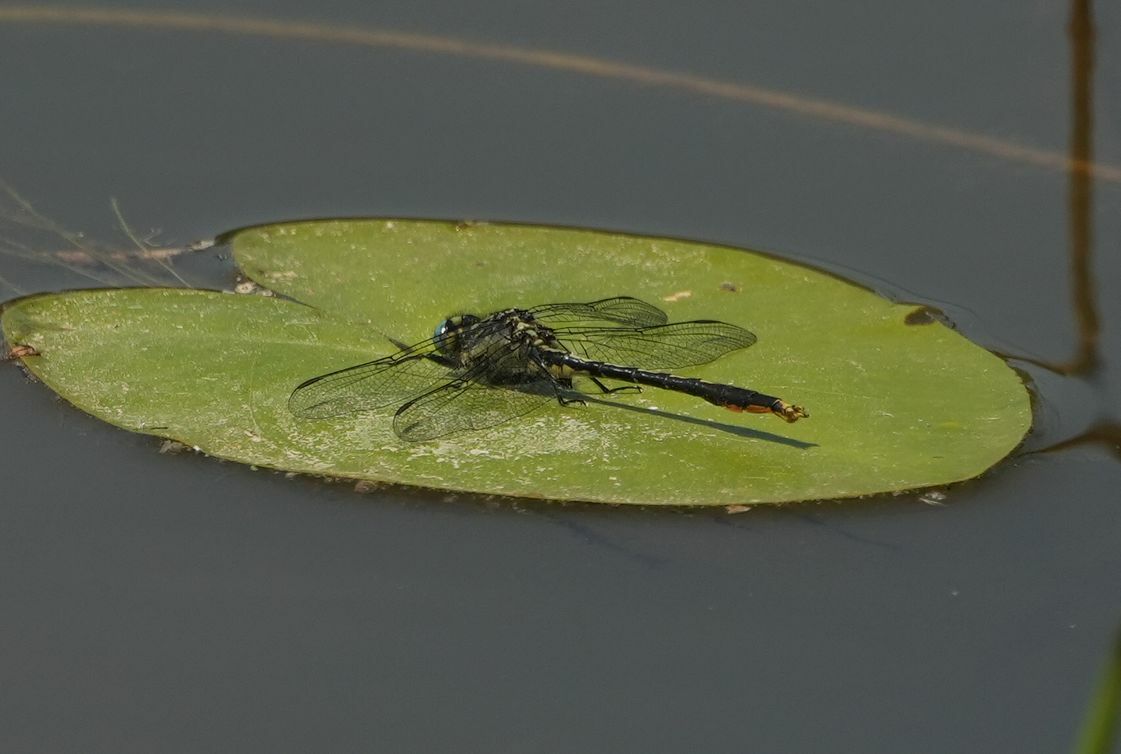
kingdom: Animalia
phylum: Arthropoda
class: Insecta
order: Odonata
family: Gomphidae
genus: Arigomphus
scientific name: Arigomphus furcifer
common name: Lilypad clubtail
